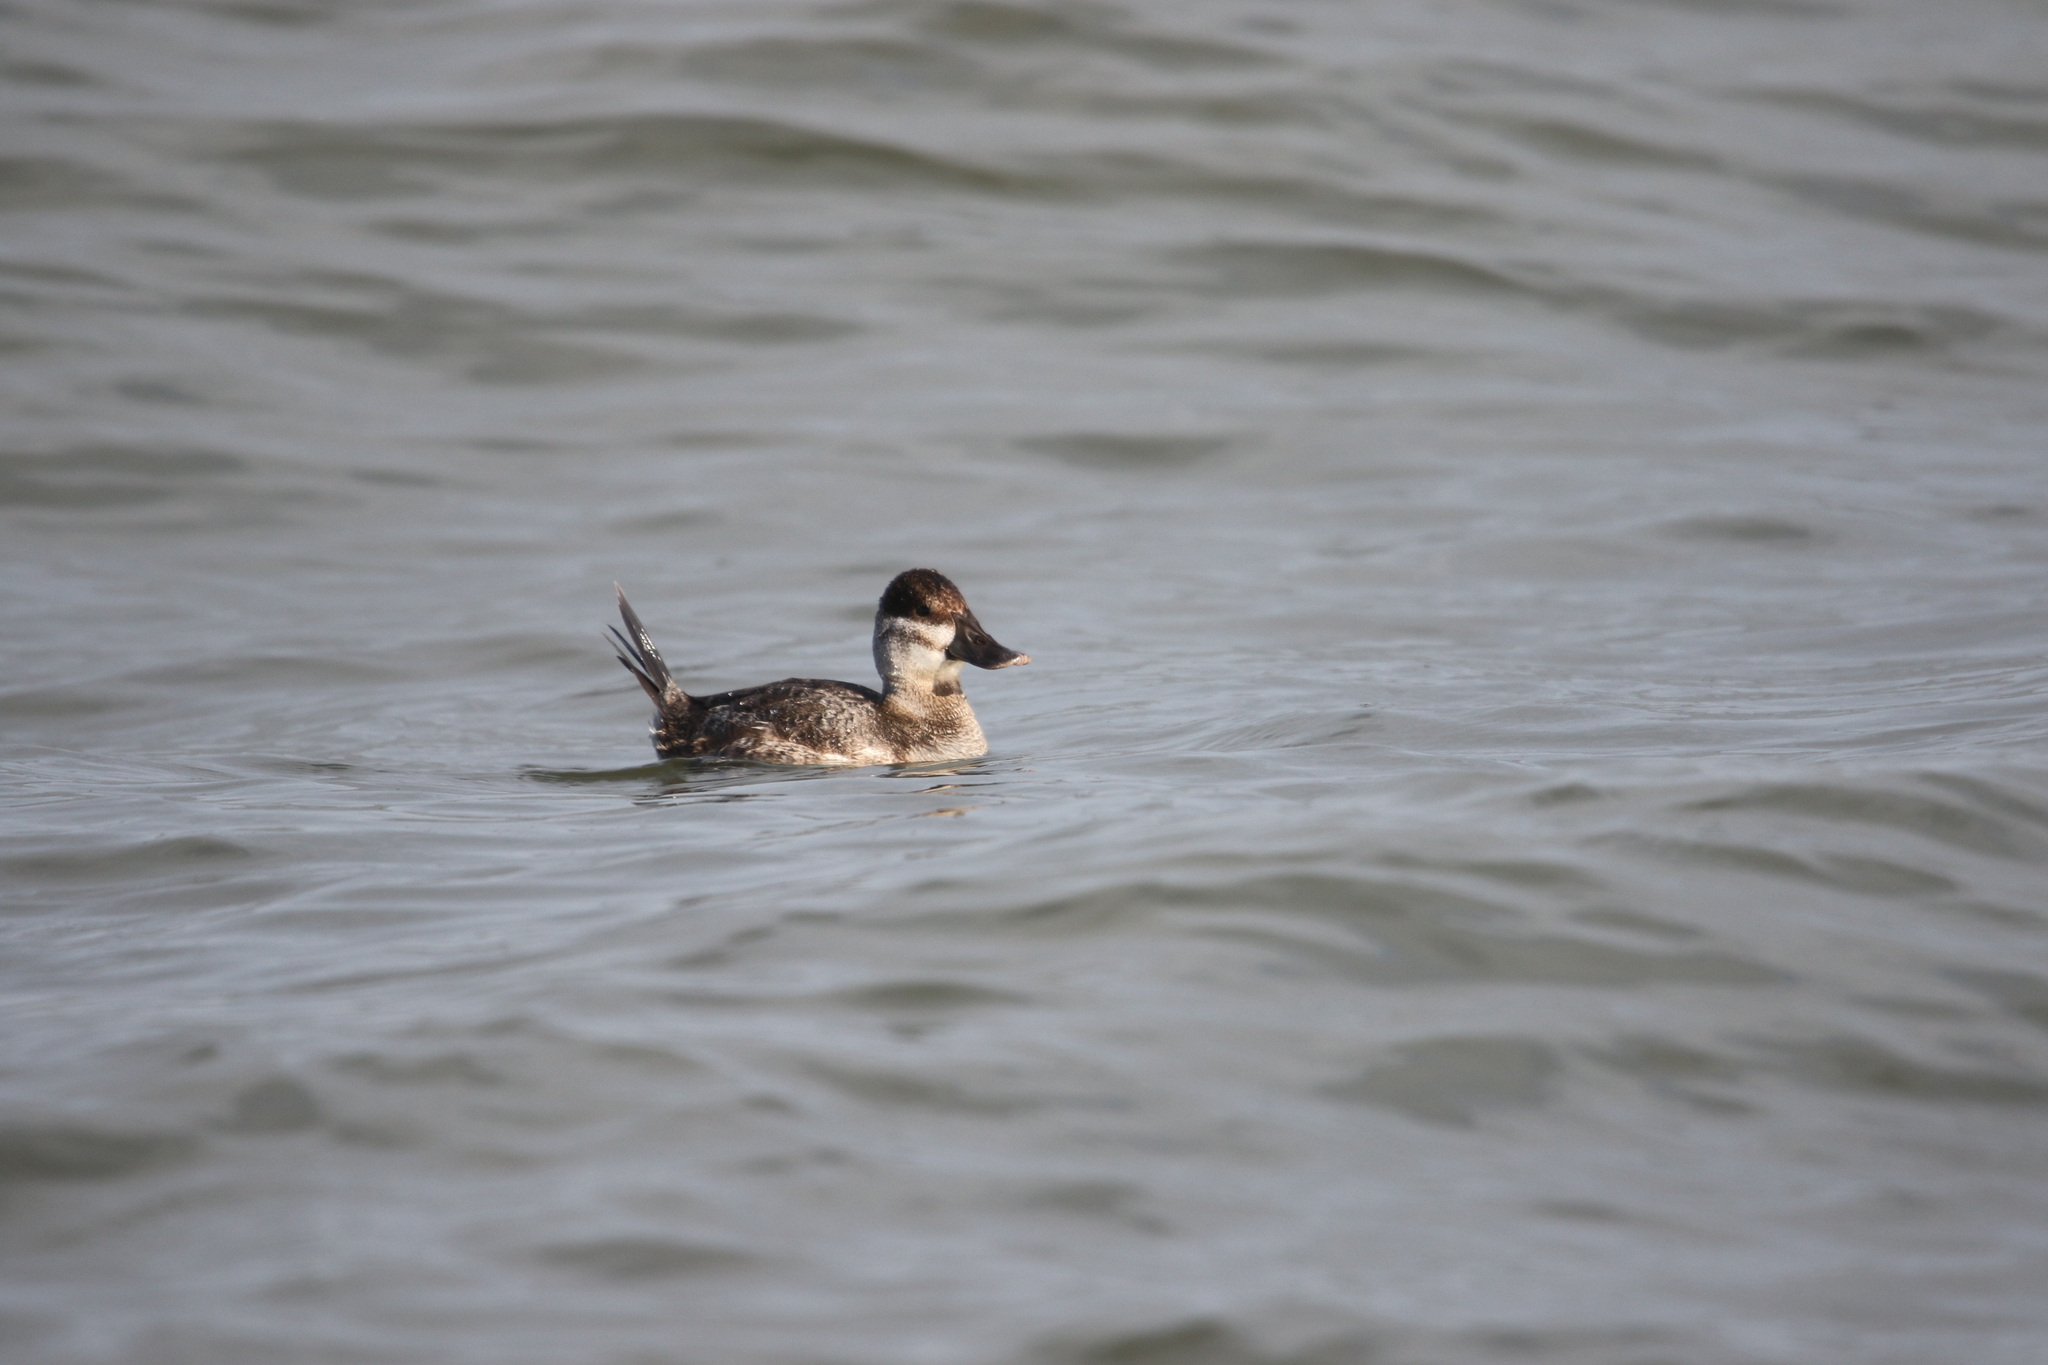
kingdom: Animalia
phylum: Chordata
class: Aves
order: Anseriformes
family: Anatidae
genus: Oxyura
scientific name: Oxyura jamaicensis
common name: Ruddy duck
